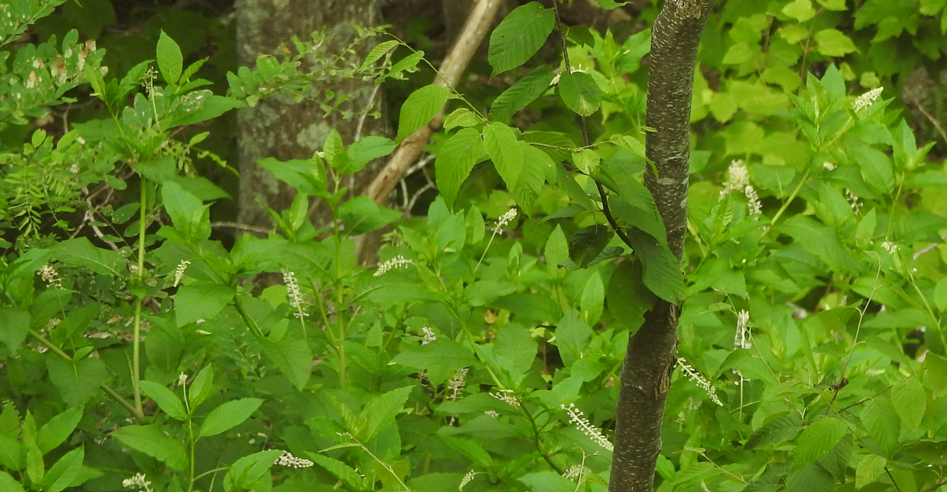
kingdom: Plantae
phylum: Tracheophyta
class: Magnoliopsida
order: Caryophyllales
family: Phytolaccaceae
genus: Phytolacca
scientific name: Phytolacca americana
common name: American pokeweed
